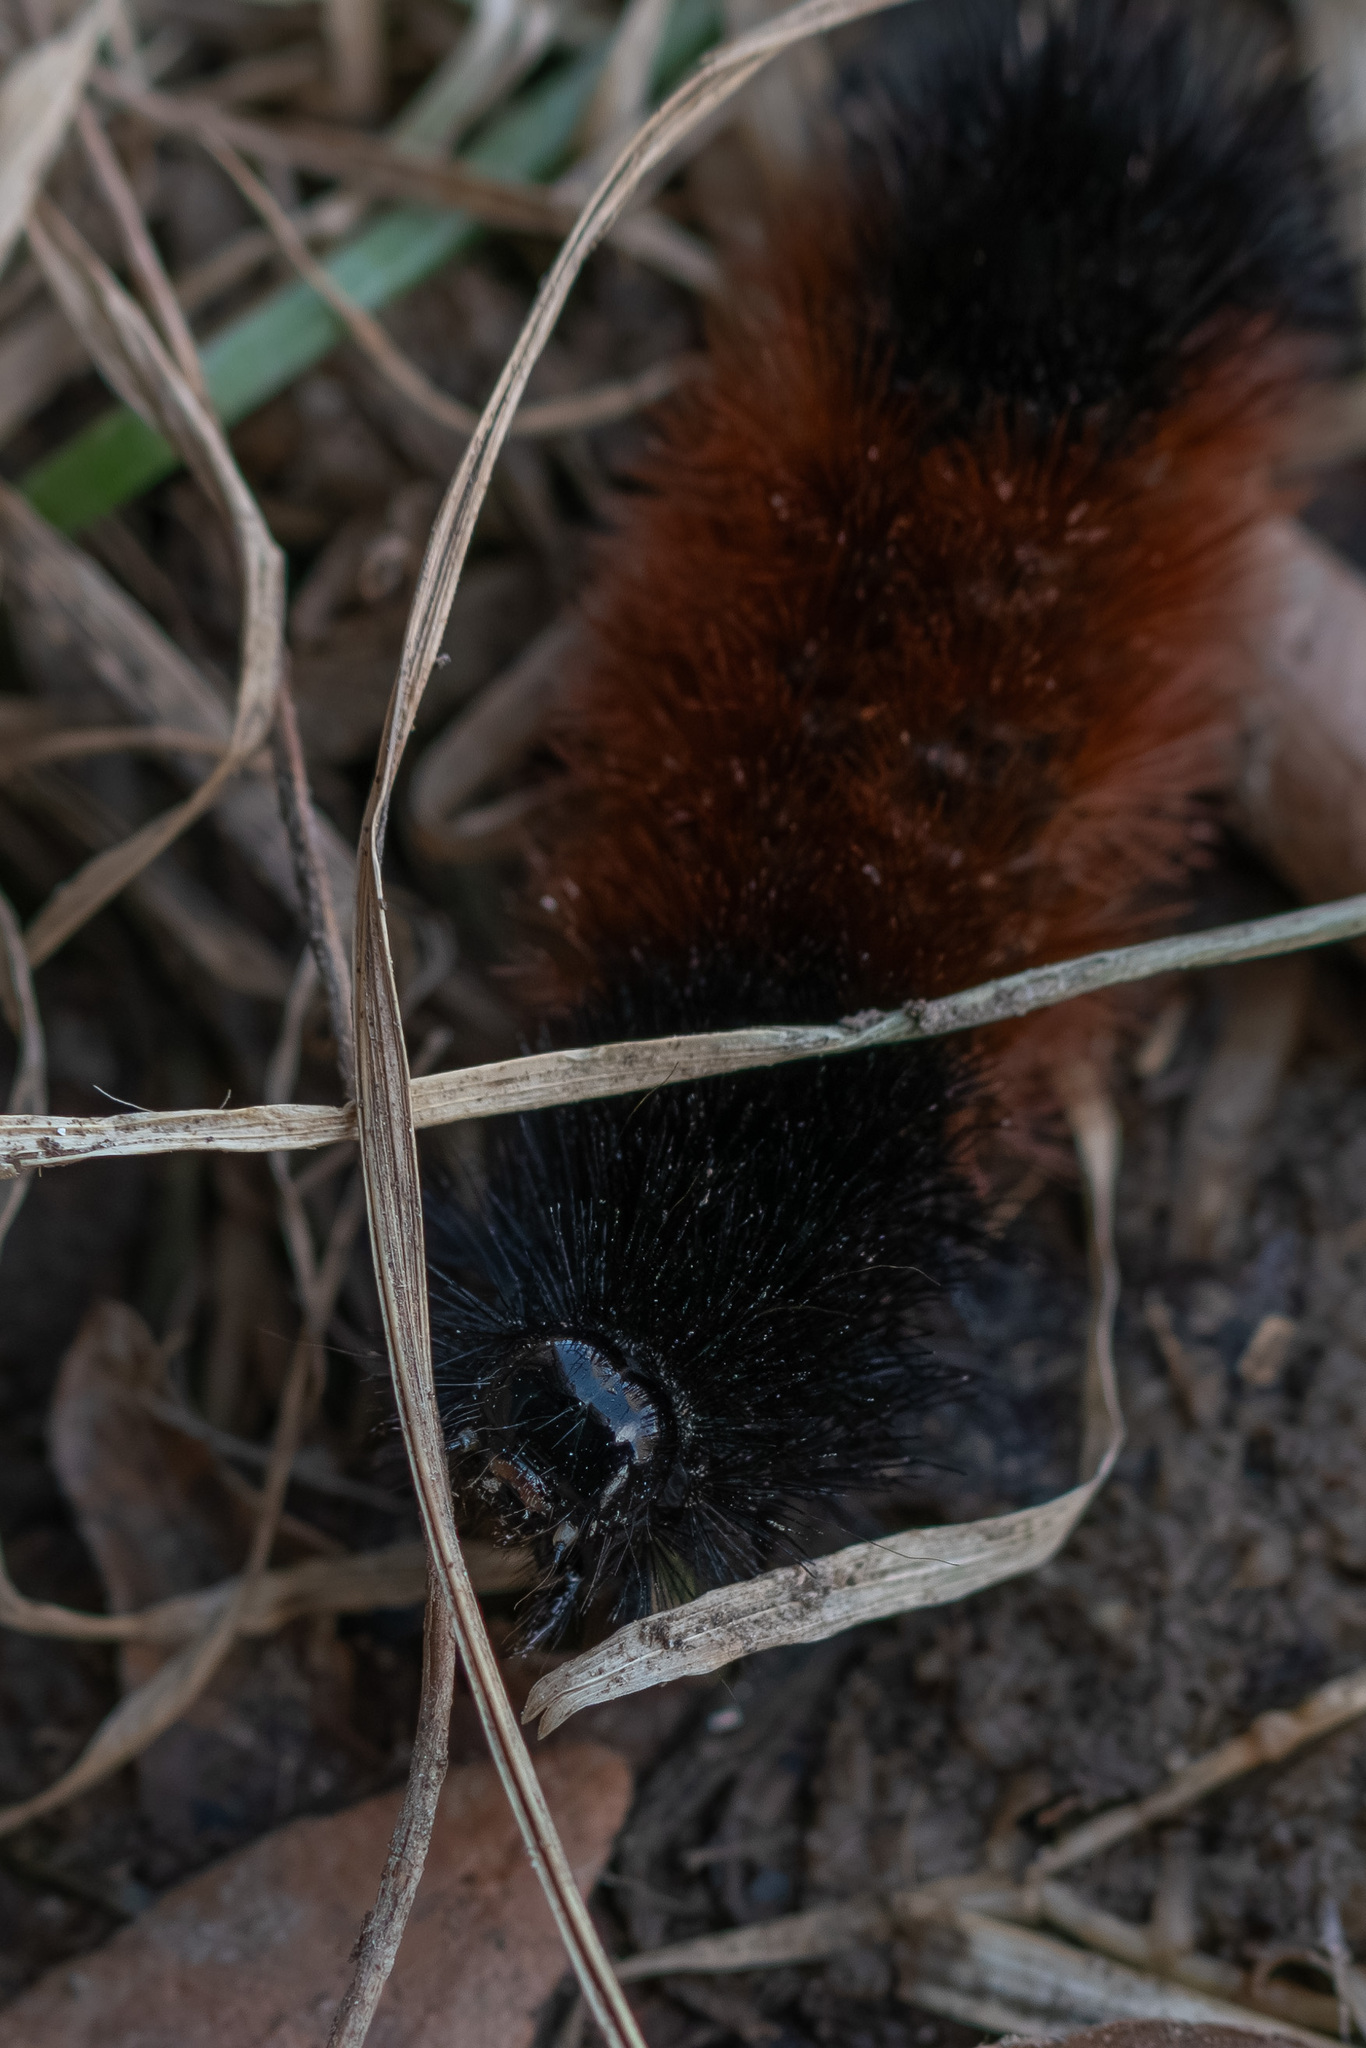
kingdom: Animalia
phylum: Arthropoda
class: Insecta
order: Lepidoptera
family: Erebidae
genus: Pyrrharctia
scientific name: Pyrrharctia isabella
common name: Isabella tiger moth
